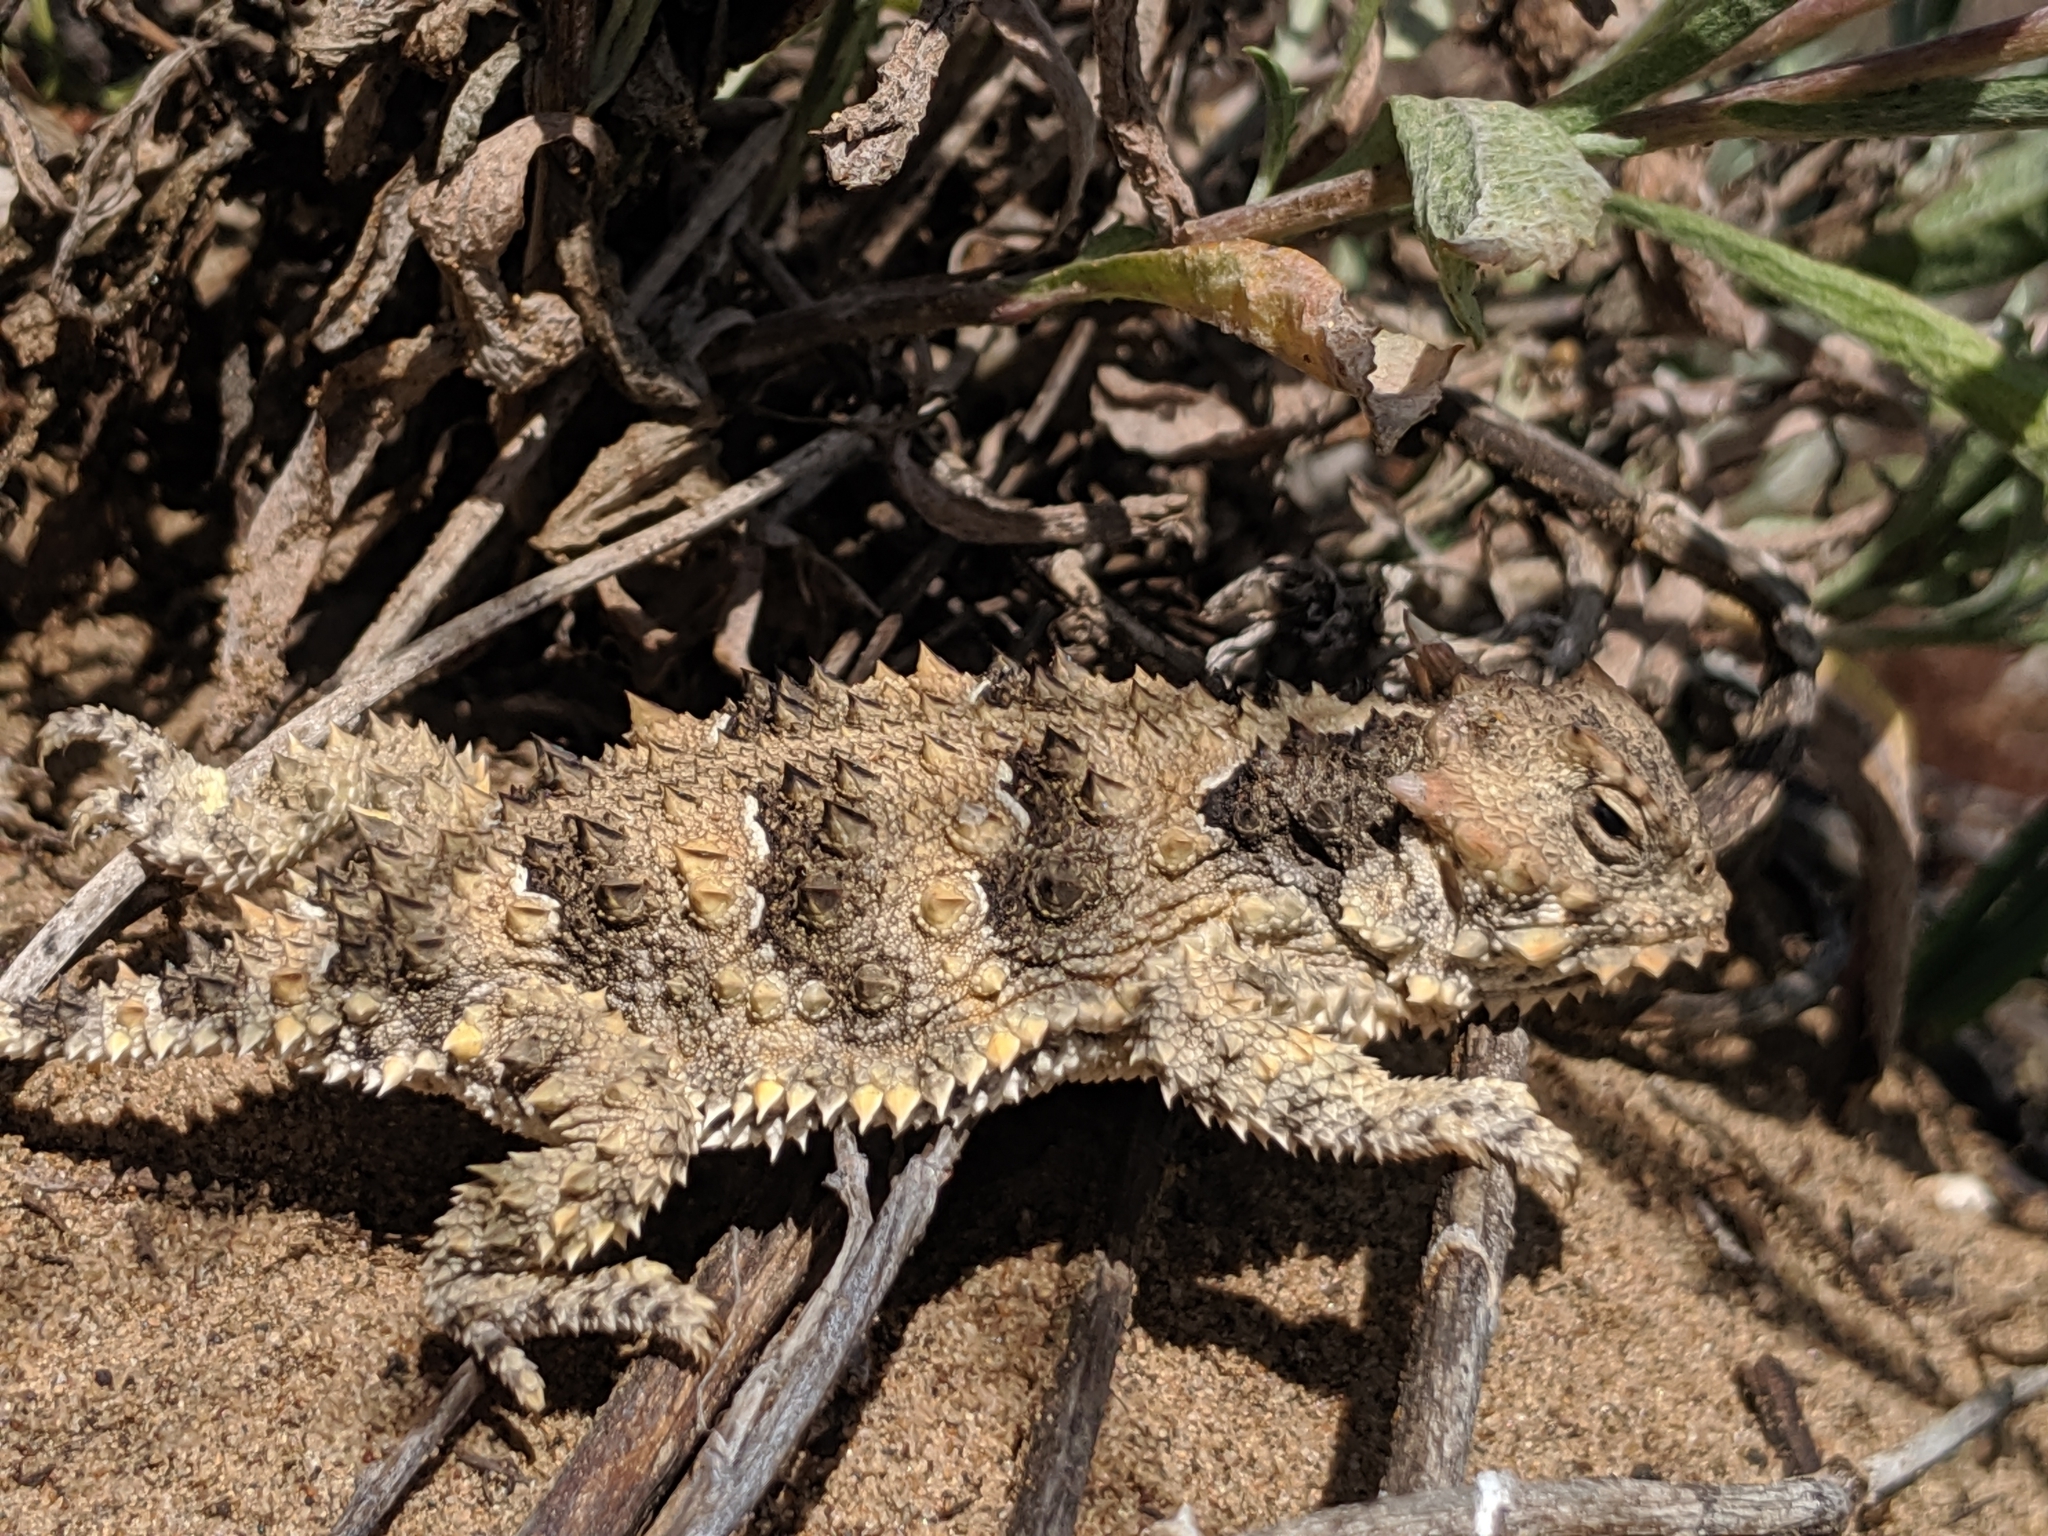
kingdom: Animalia
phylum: Chordata
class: Squamata
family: Phrynosomatidae
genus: Phrynosoma
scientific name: Phrynosoma blainvillii
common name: San diego horned lizard
